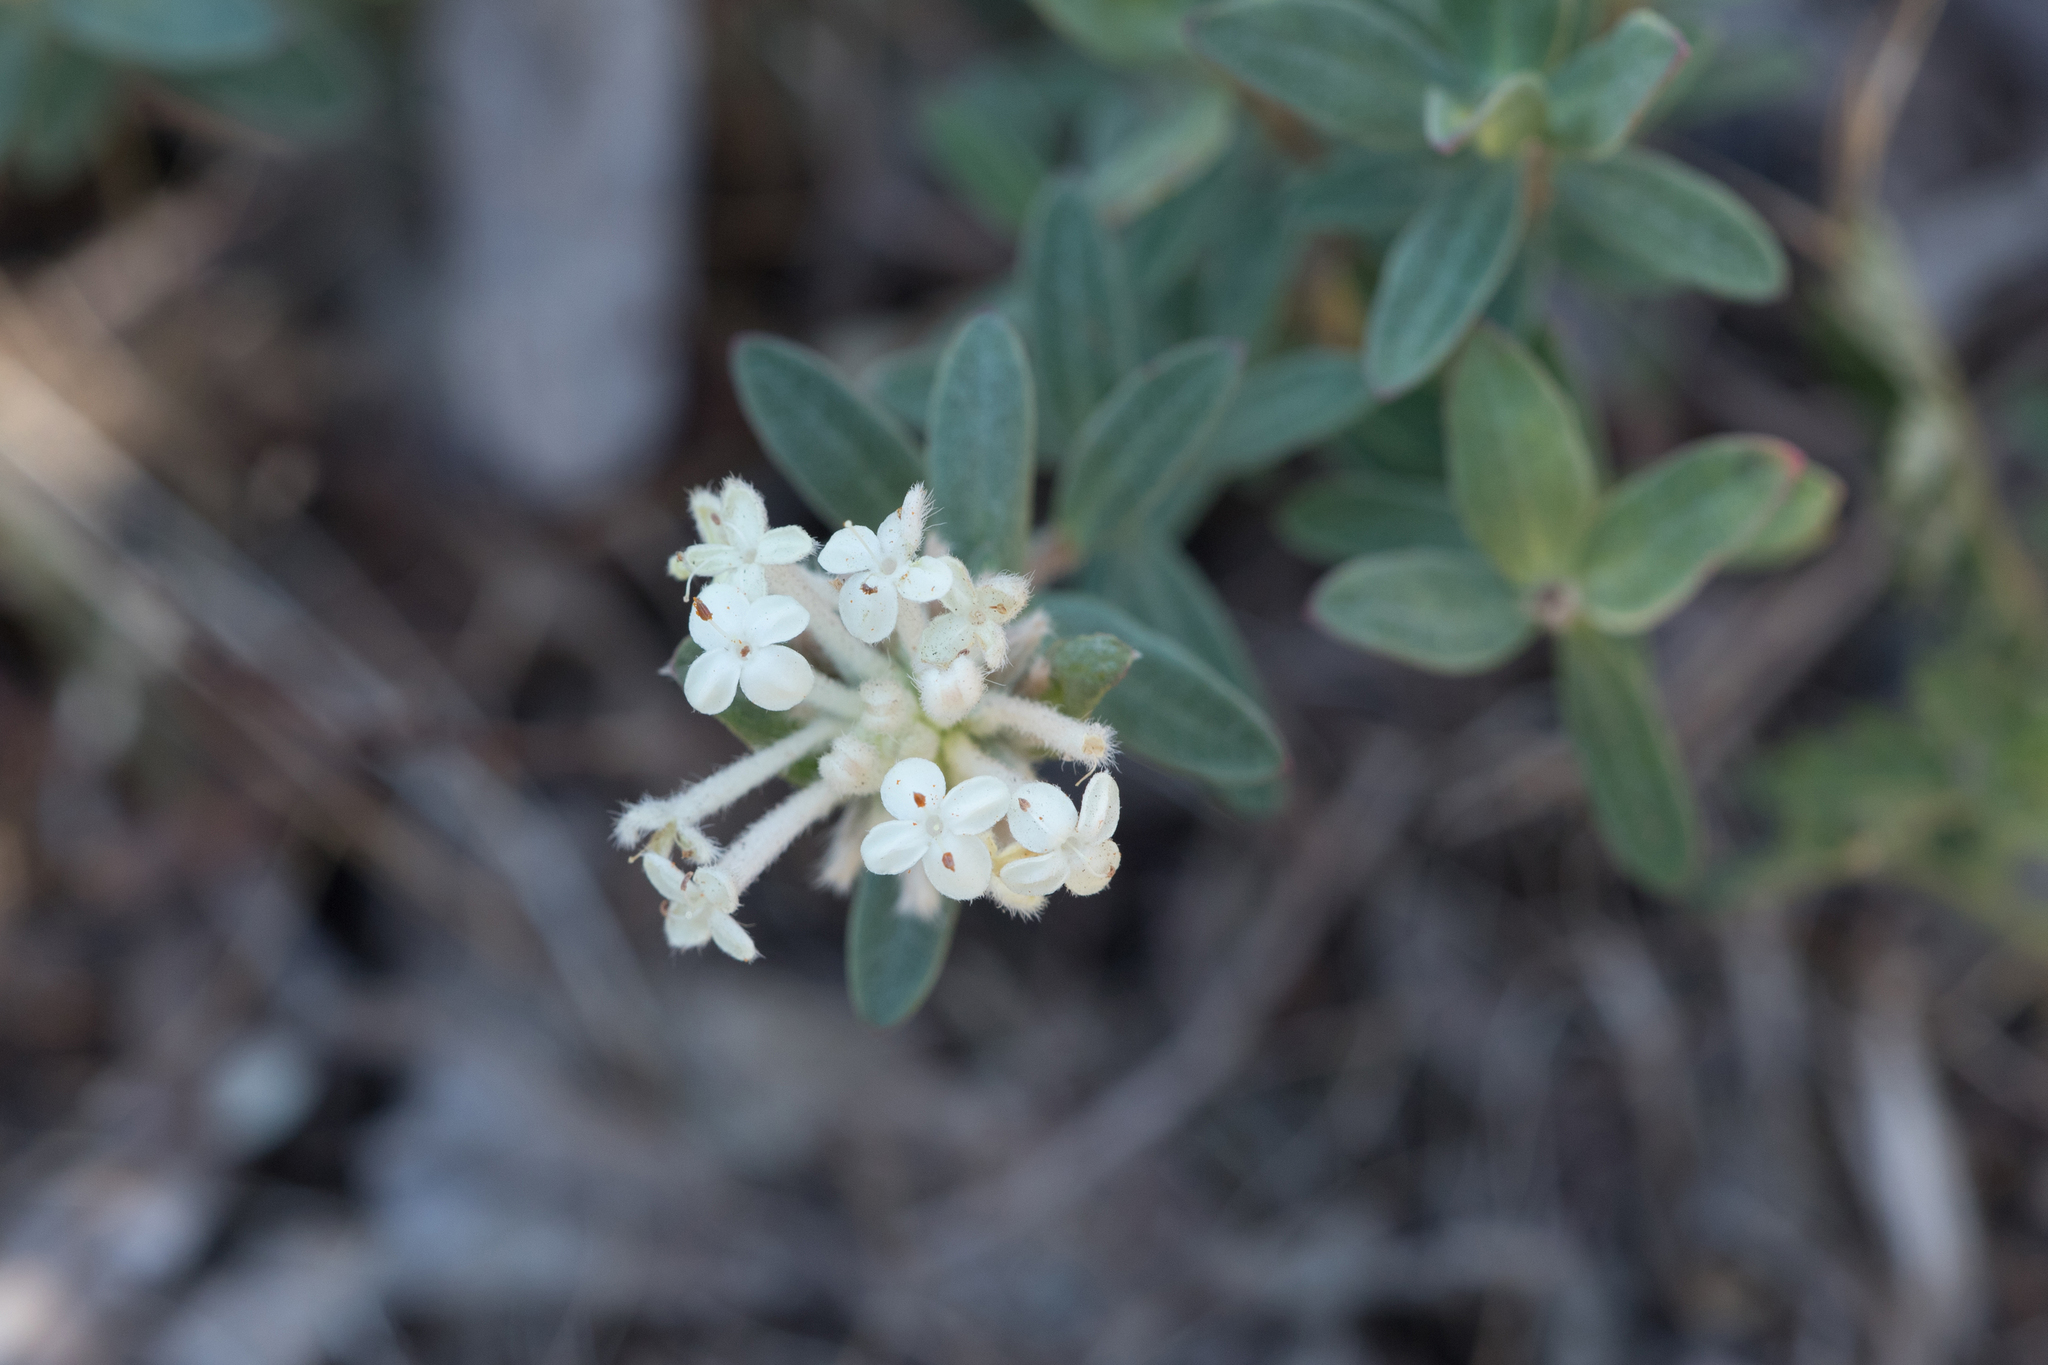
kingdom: Plantae
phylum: Tracheophyta
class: Magnoliopsida
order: Malvales
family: Thymelaeaceae
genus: Pimelea
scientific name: Pimelea humilis
